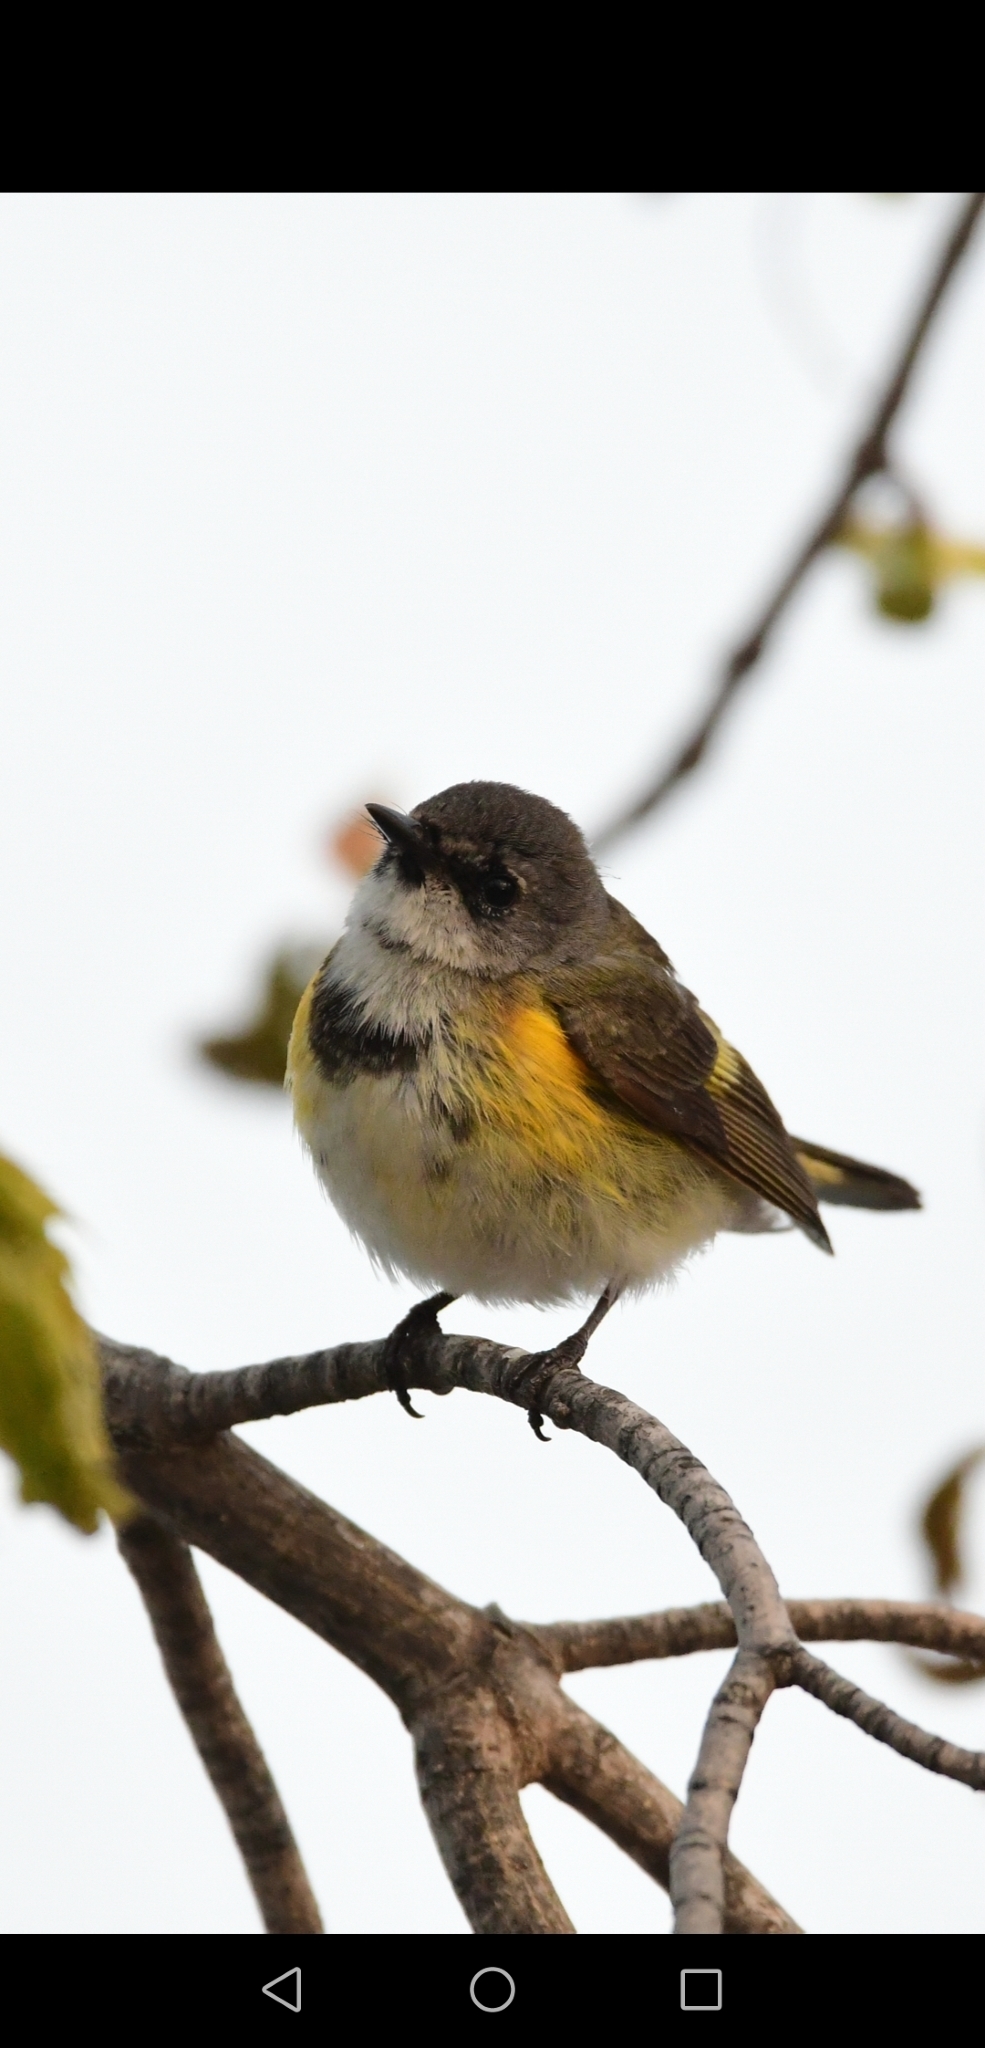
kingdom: Animalia
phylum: Chordata
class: Aves
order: Passeriformes
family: Parulidae
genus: Setophaga
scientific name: Setophaga ruticilla
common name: American redstart
